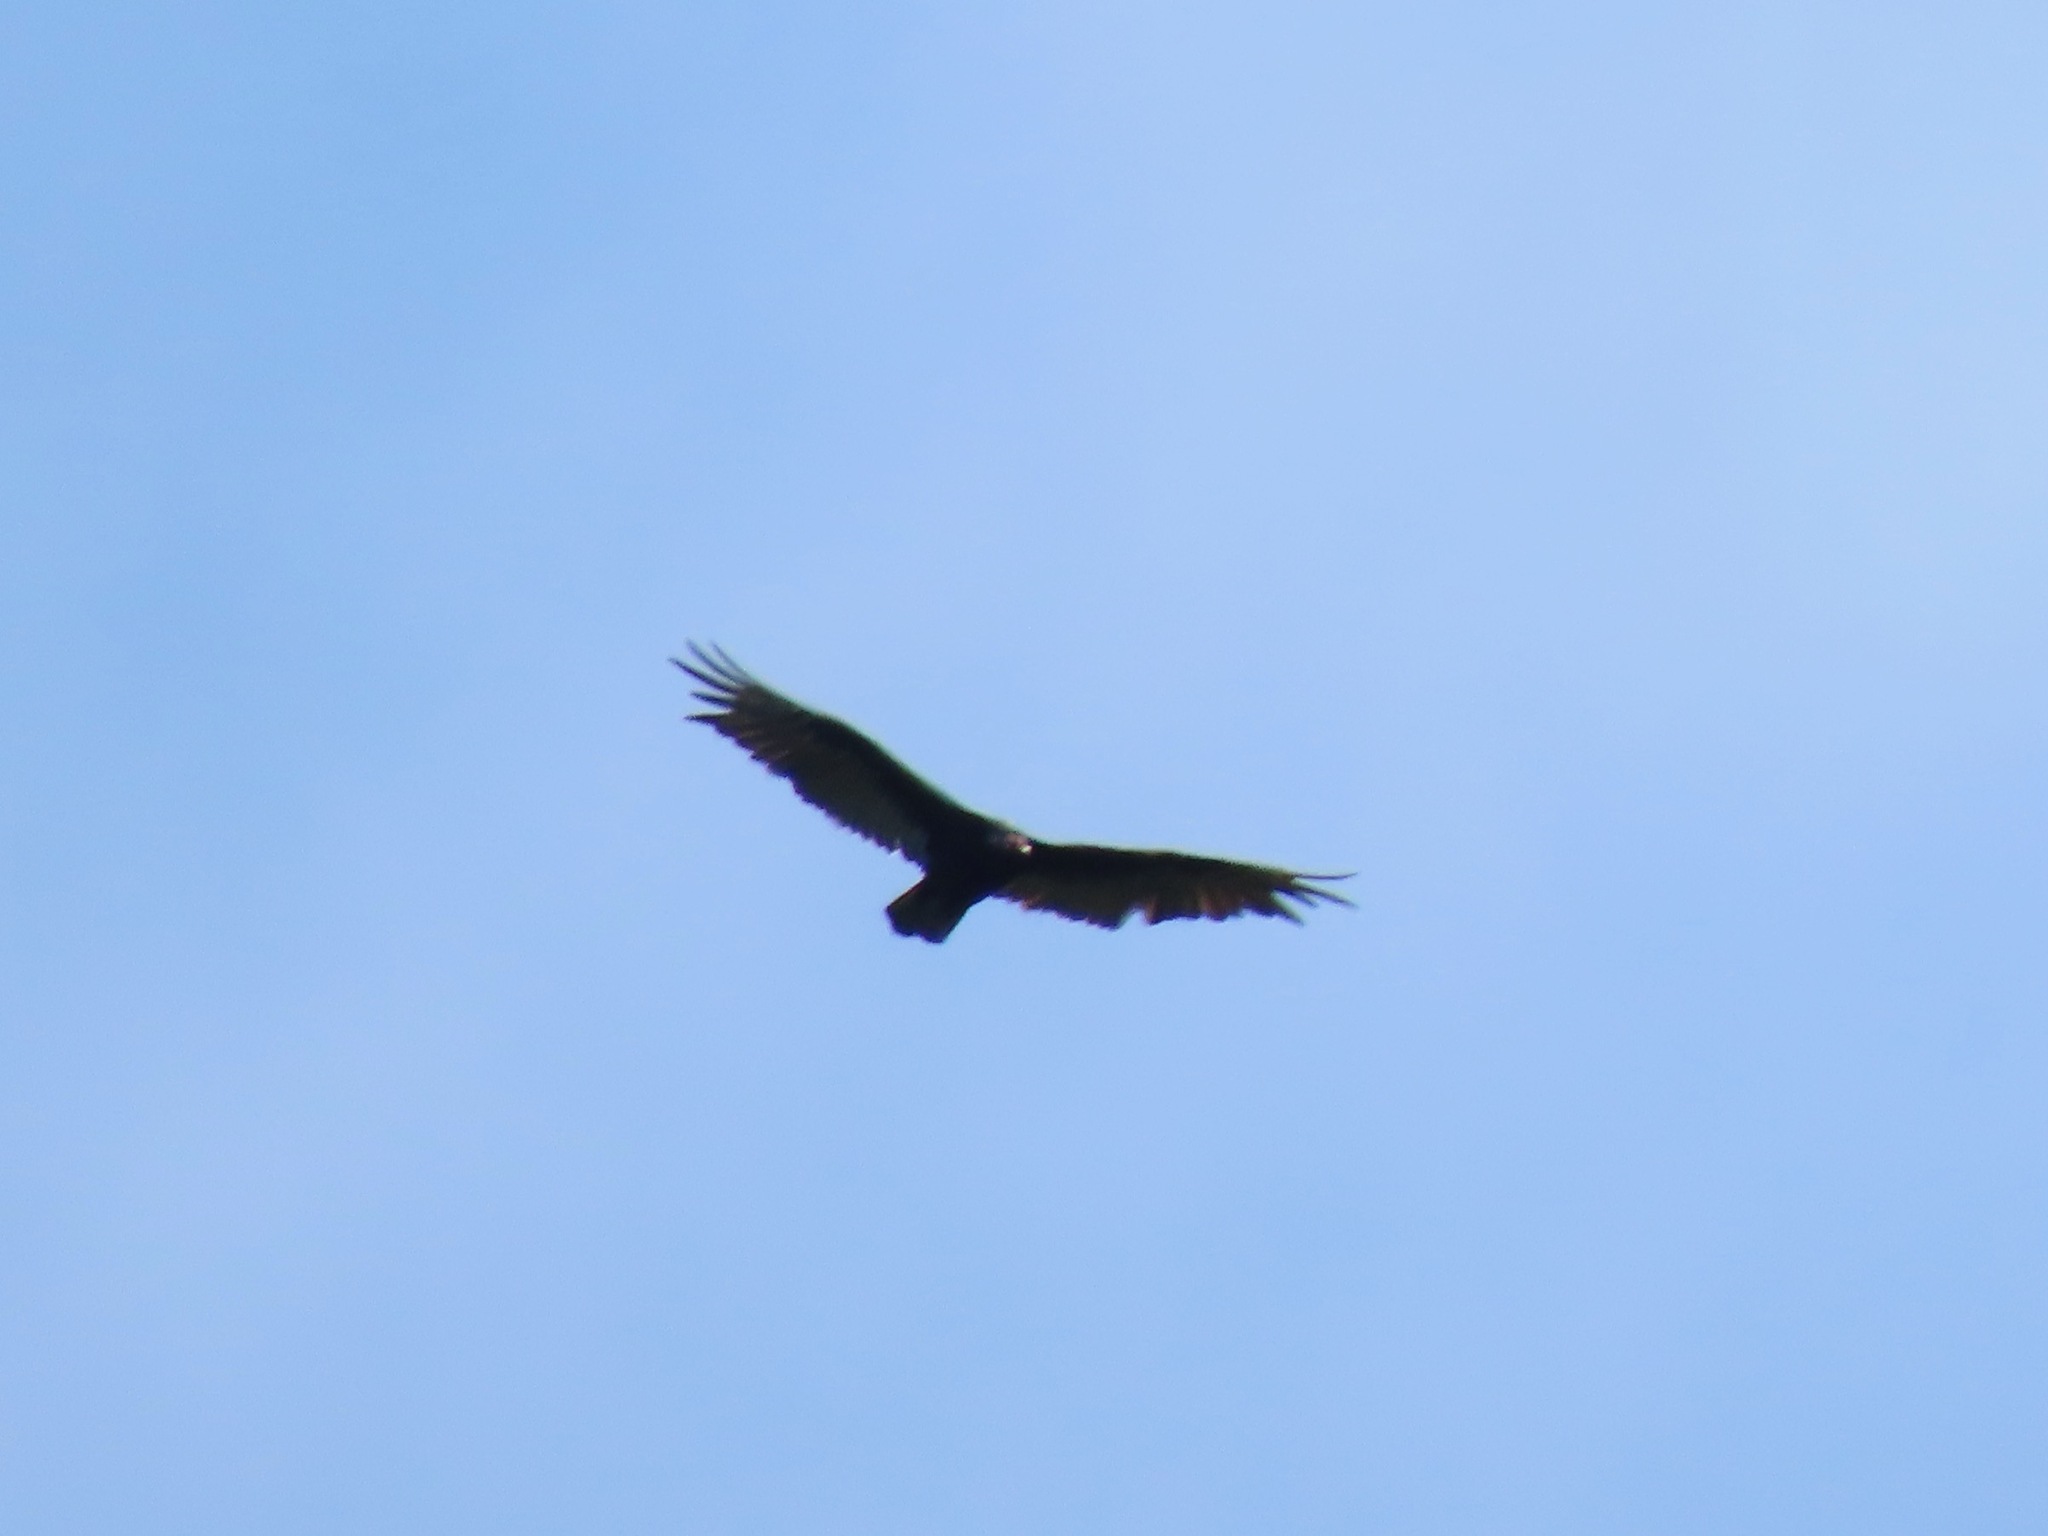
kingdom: Animalia
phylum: Chordata
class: Aves
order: Accipitriformes
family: Cathartidae
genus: Cathartes
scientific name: Cathartes aura
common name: Turkey vulture
